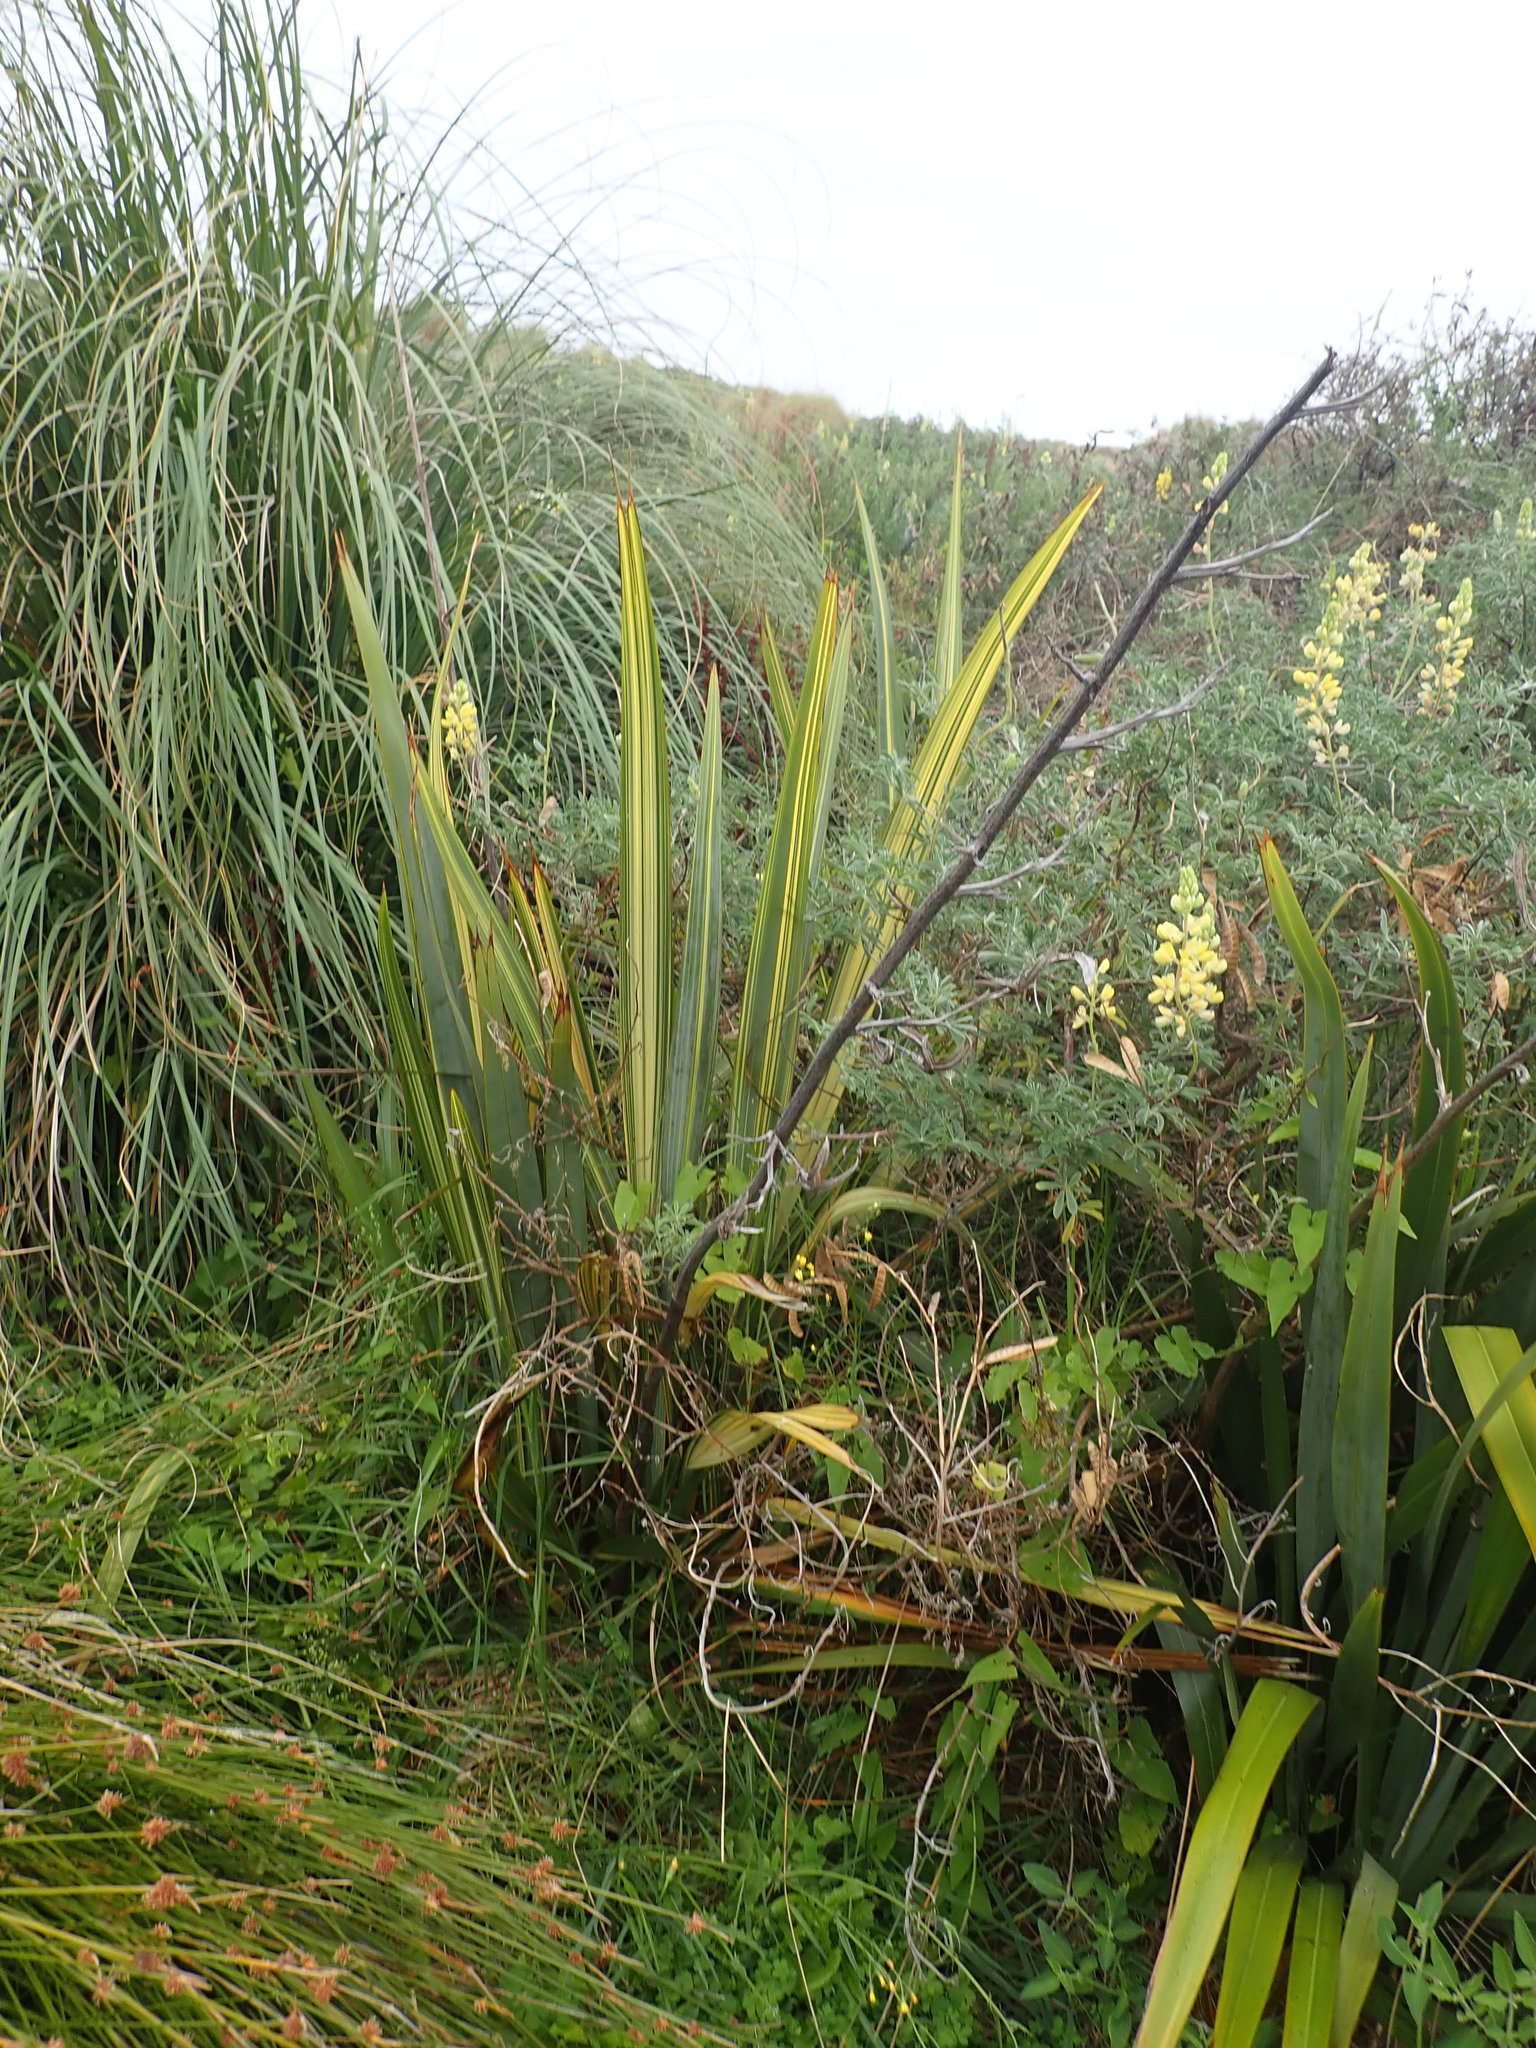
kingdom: Plantae
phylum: Tracheophyta
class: Liliopsida
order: Asparagales
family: Asphodelaceae
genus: Phormium
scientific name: Phormium tenax
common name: New zealand flax
